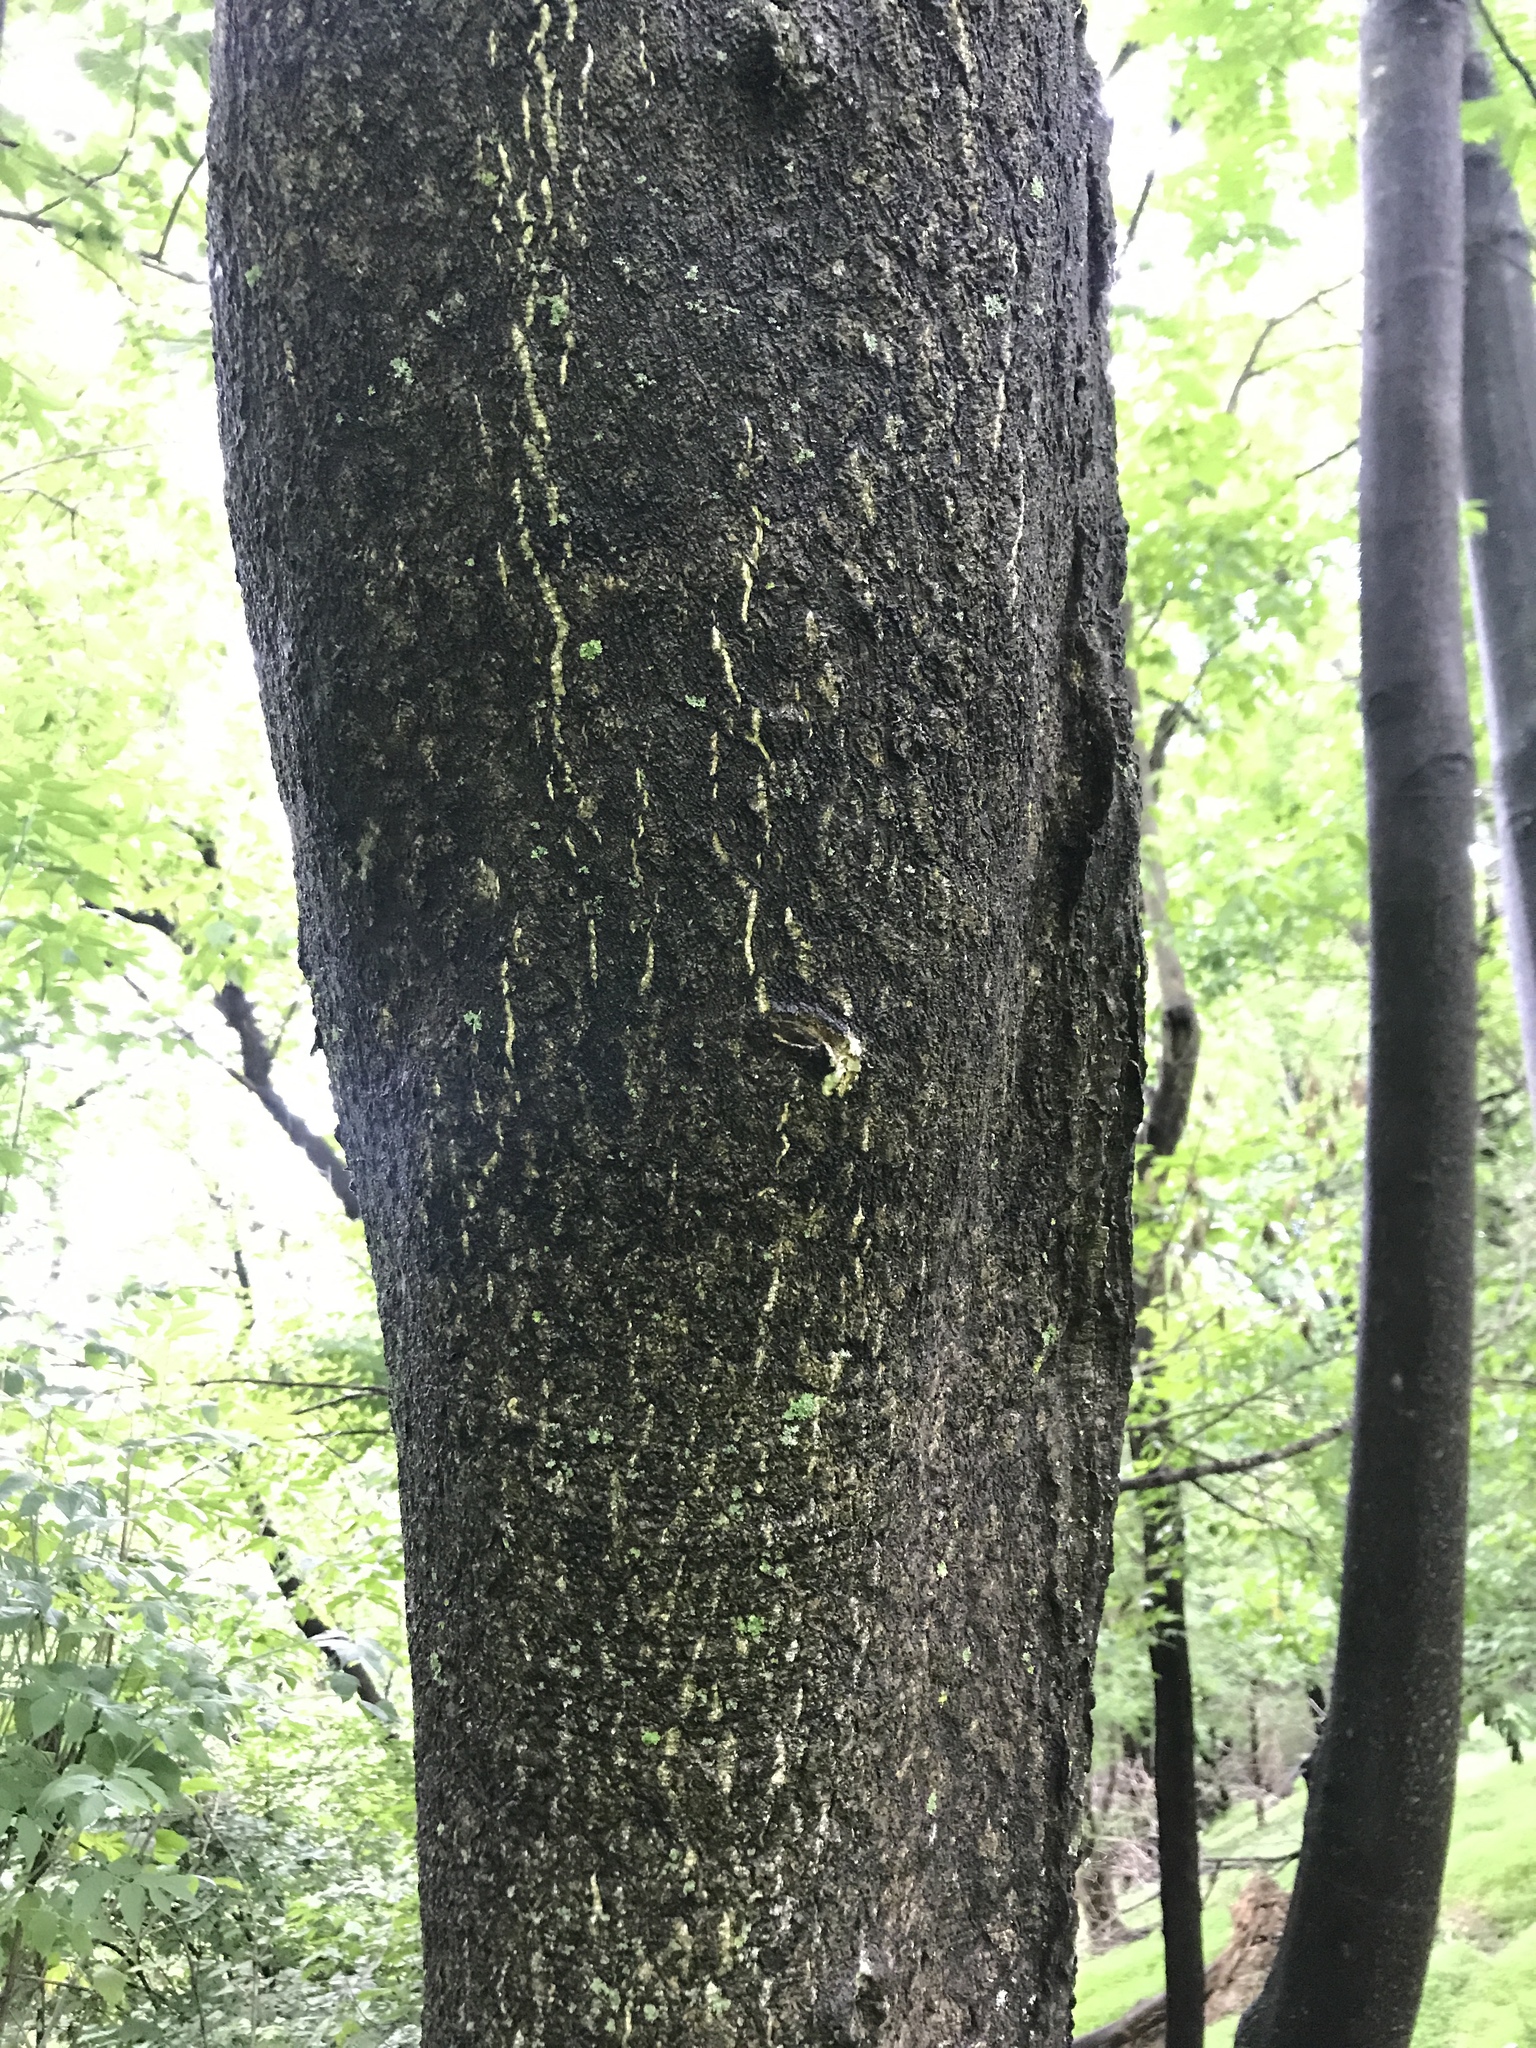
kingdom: Plantae
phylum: Tracheophyta
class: Magnoliopsida
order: Sapindales
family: Simaroubaceae
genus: Ailanthus
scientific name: Ailanthus altissima
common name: Tree-of-heaven
